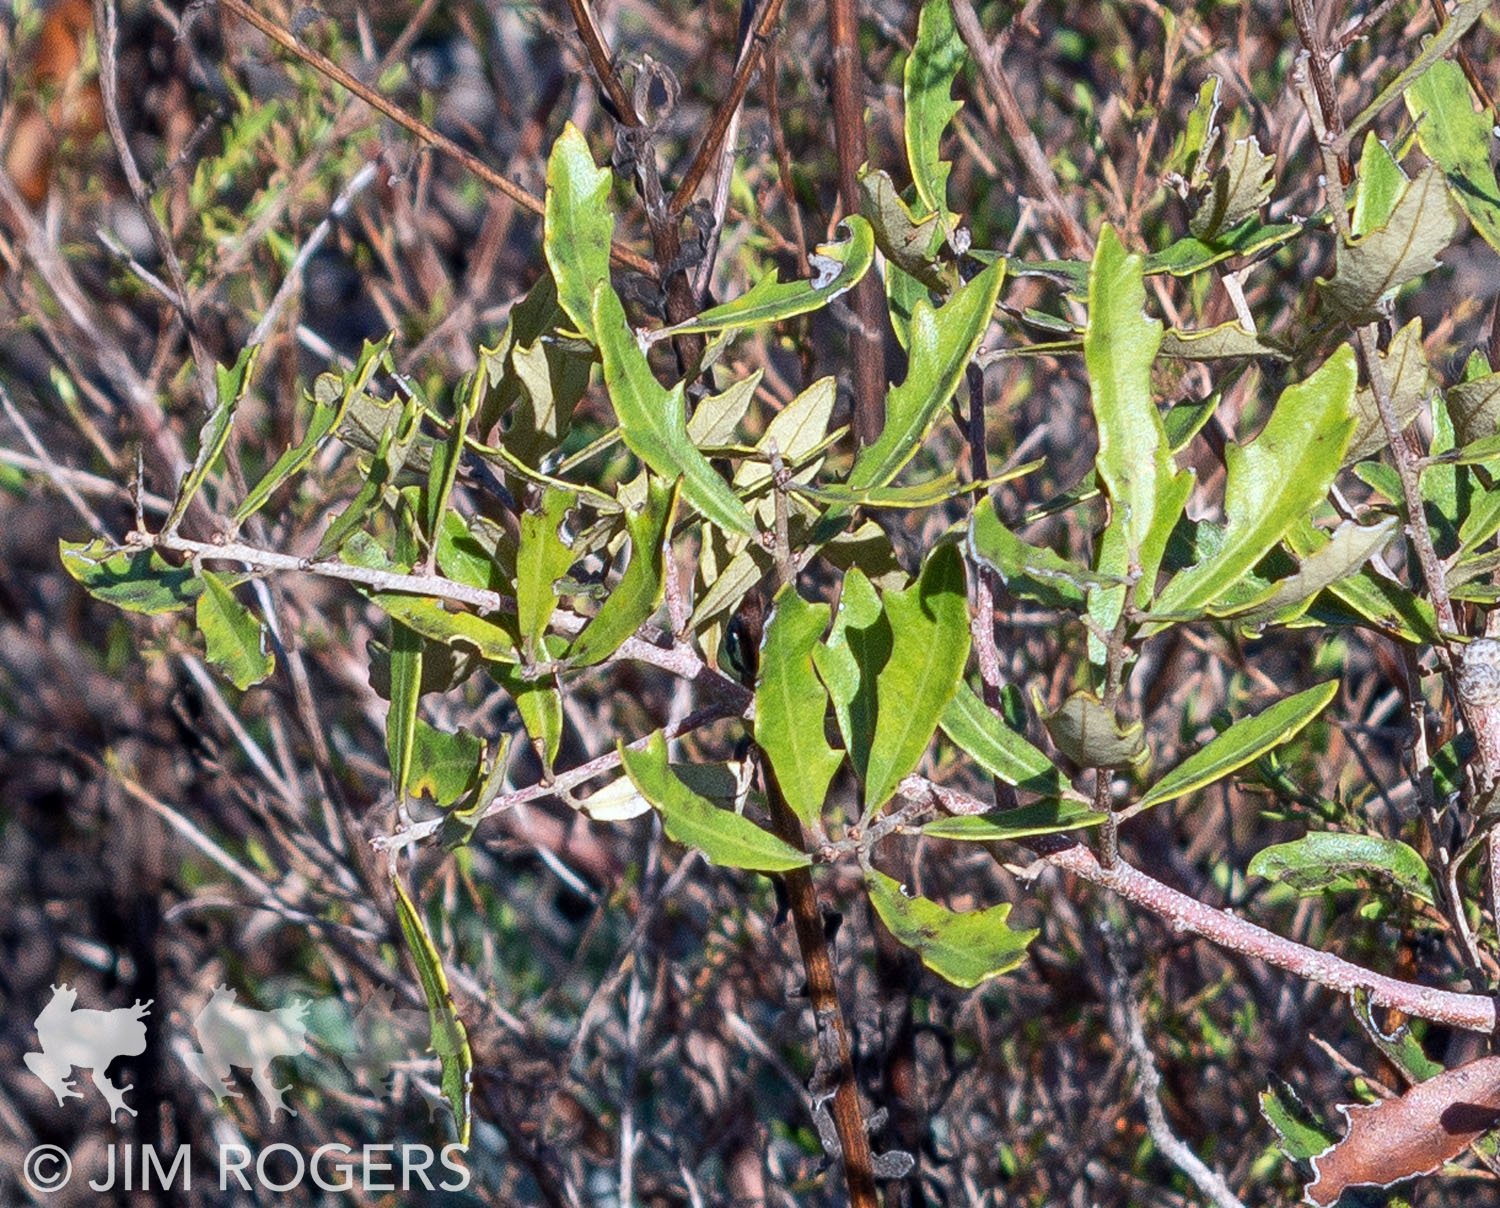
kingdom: Plantae
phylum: Tracheophyta
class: Magnoliopsida
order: Fagales
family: Fagaceae
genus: Quercus
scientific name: Quercus minima
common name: Dwarf live oak
